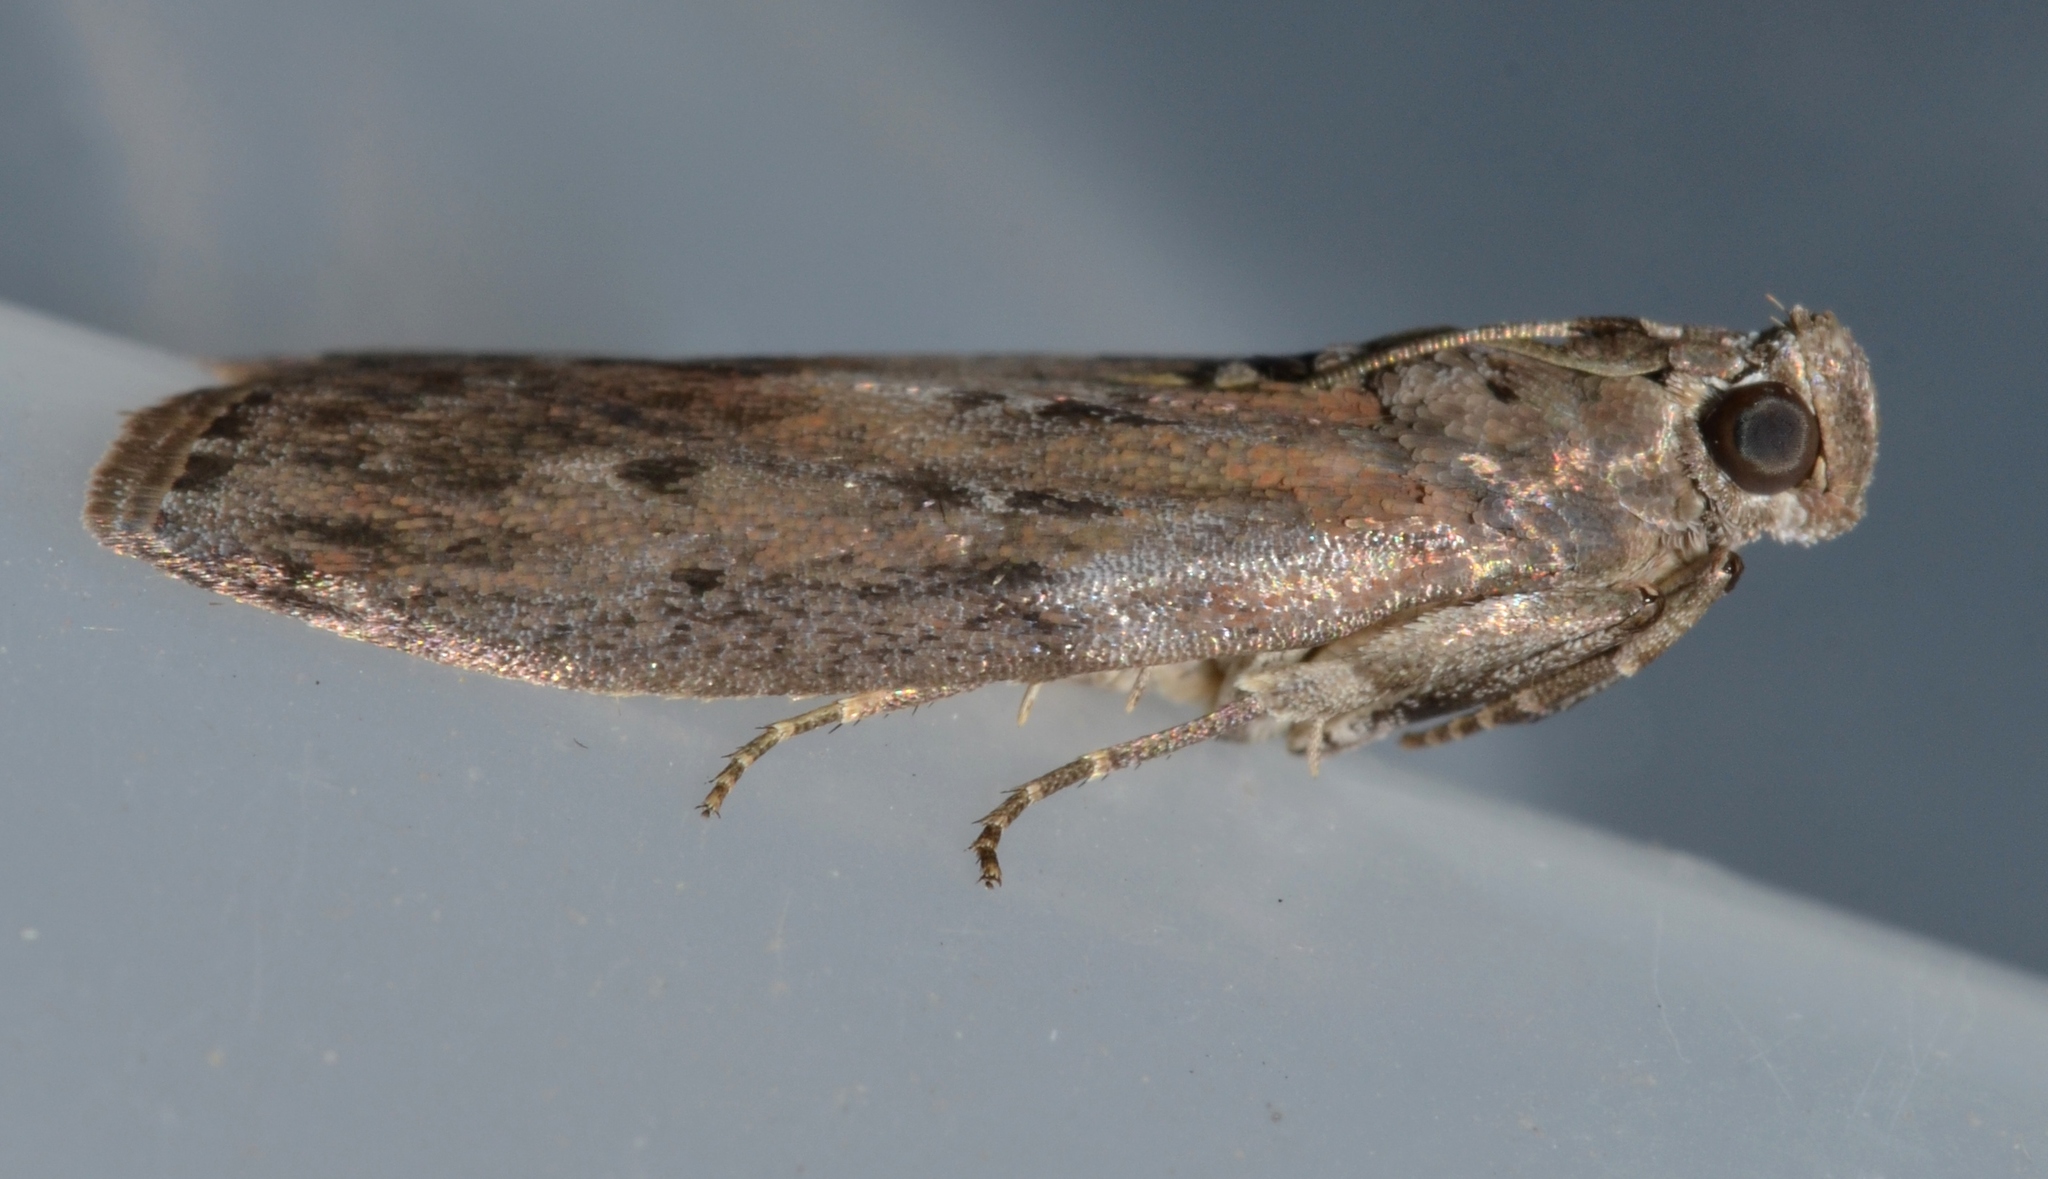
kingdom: Animalia
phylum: Arthropoda
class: Insecta
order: Lepidoptera
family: Pyralidae
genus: Sciota
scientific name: Sciota virgatella
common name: Black-spotted leafroller moth
